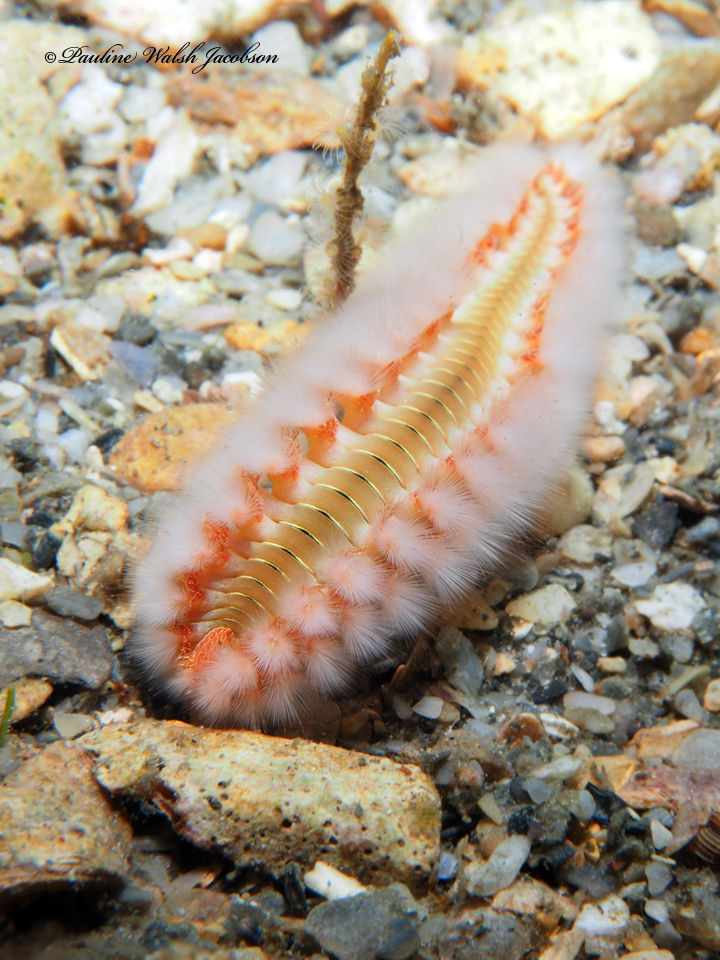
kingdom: Animalia
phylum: Annelida
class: Polychaeta
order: Amphinomida
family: Amphinomidae
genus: Hermodice
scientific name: Hermodice carunculata
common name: Bearded fireworm
